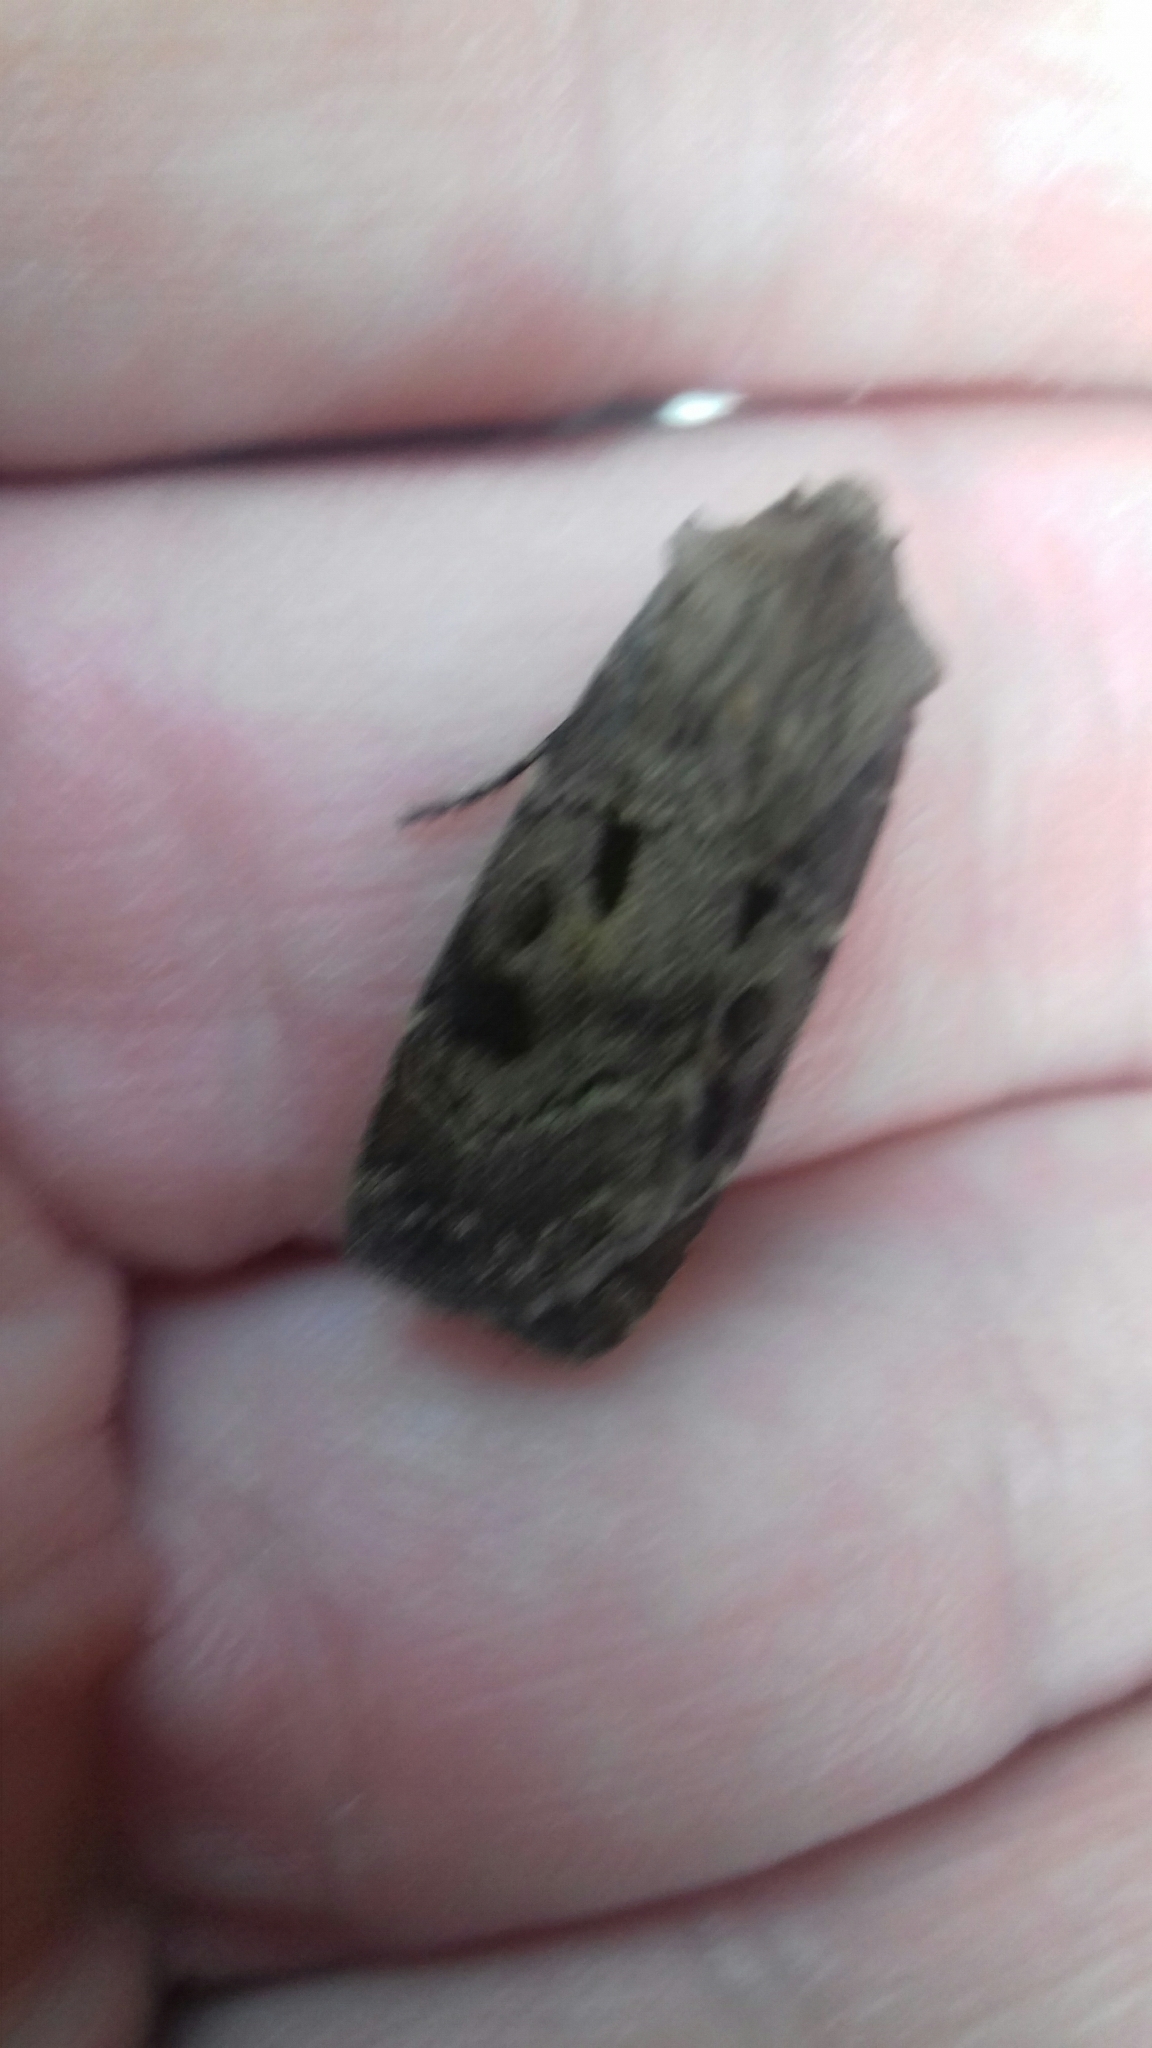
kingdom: Animalia
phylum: Arthropoda
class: Insecta
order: Lepidoptera
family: Noctuidae
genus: Agrotis
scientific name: Agrotis exclamationis
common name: Heart and dart
